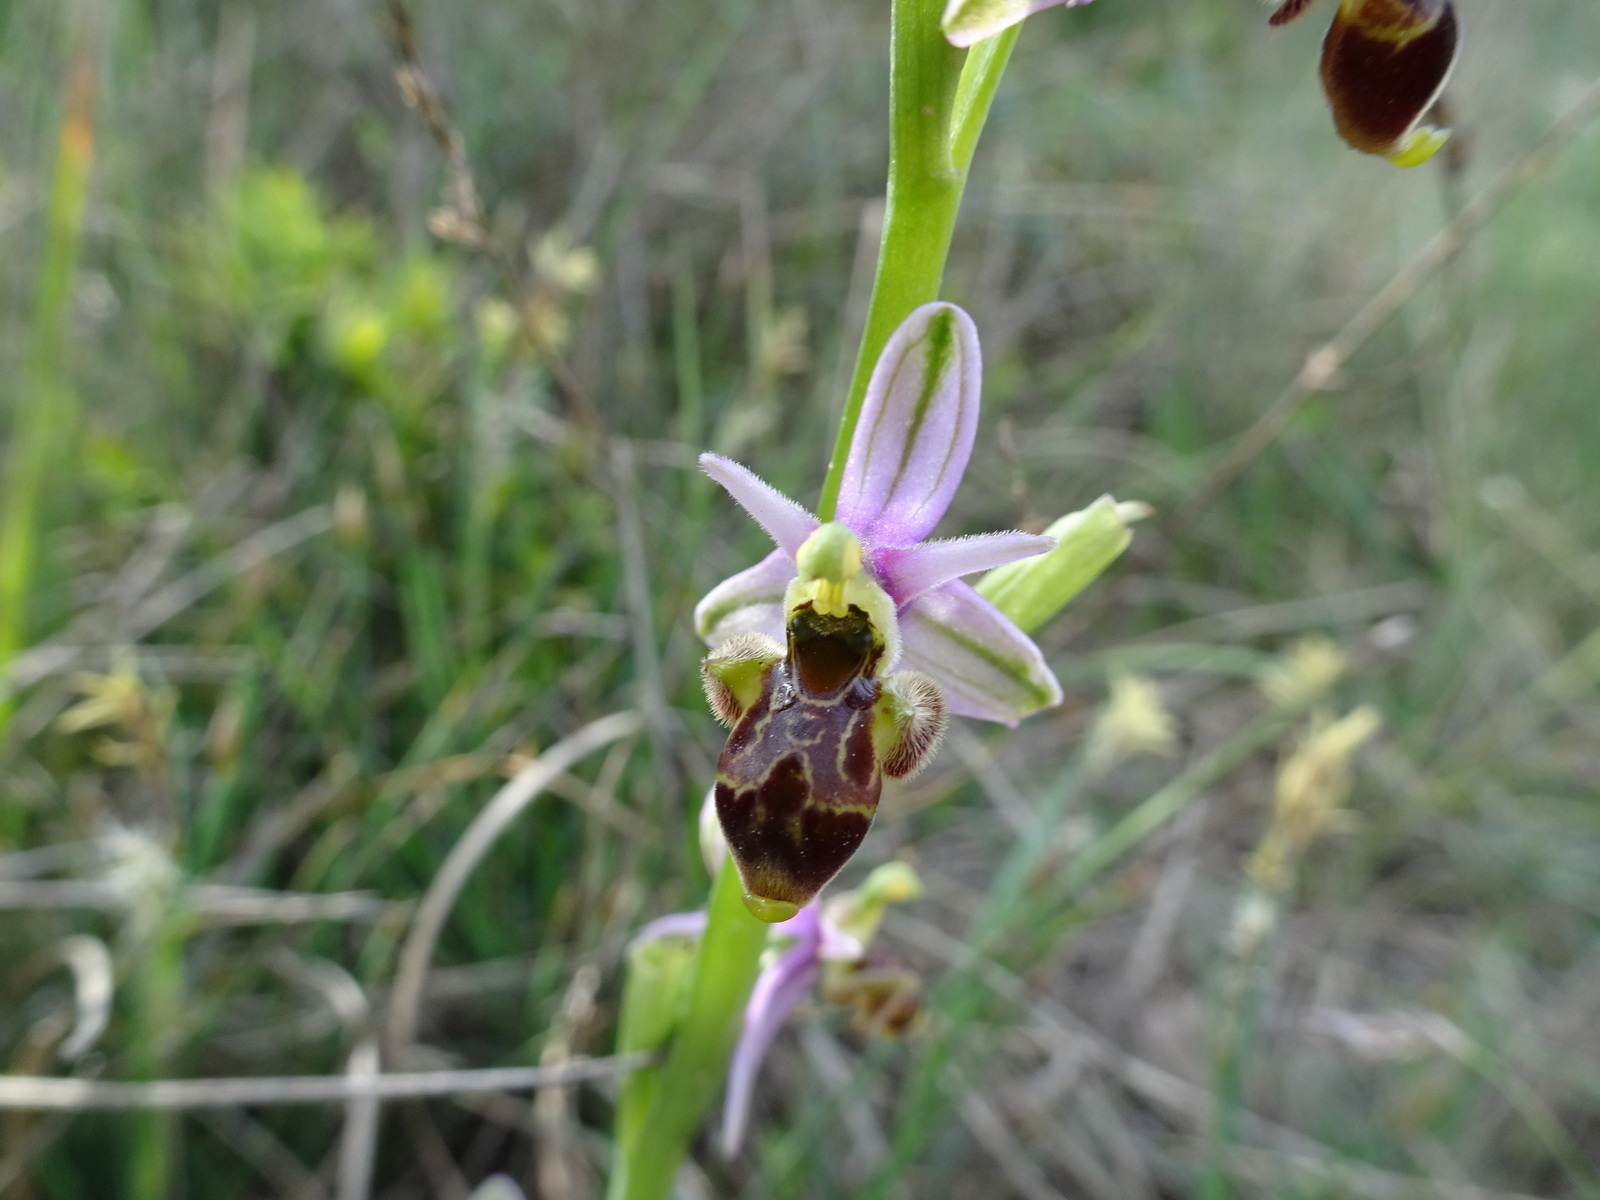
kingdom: Plantae
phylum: Tracheophyta
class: Liliopsida
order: Asparagales
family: Orchidaceae
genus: Ophrys
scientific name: Ophrys scolopax
